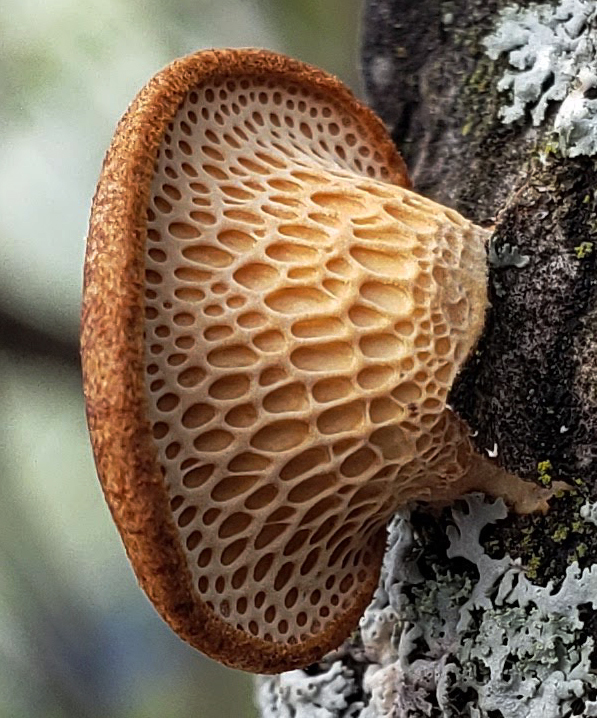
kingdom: Fungi
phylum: Basidiomycota
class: Agaricomycetes
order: Polyporales
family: Polyporaceae
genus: Neofavolus
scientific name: Neofavolus alveolaris
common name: Hexagonal-pored polypore
